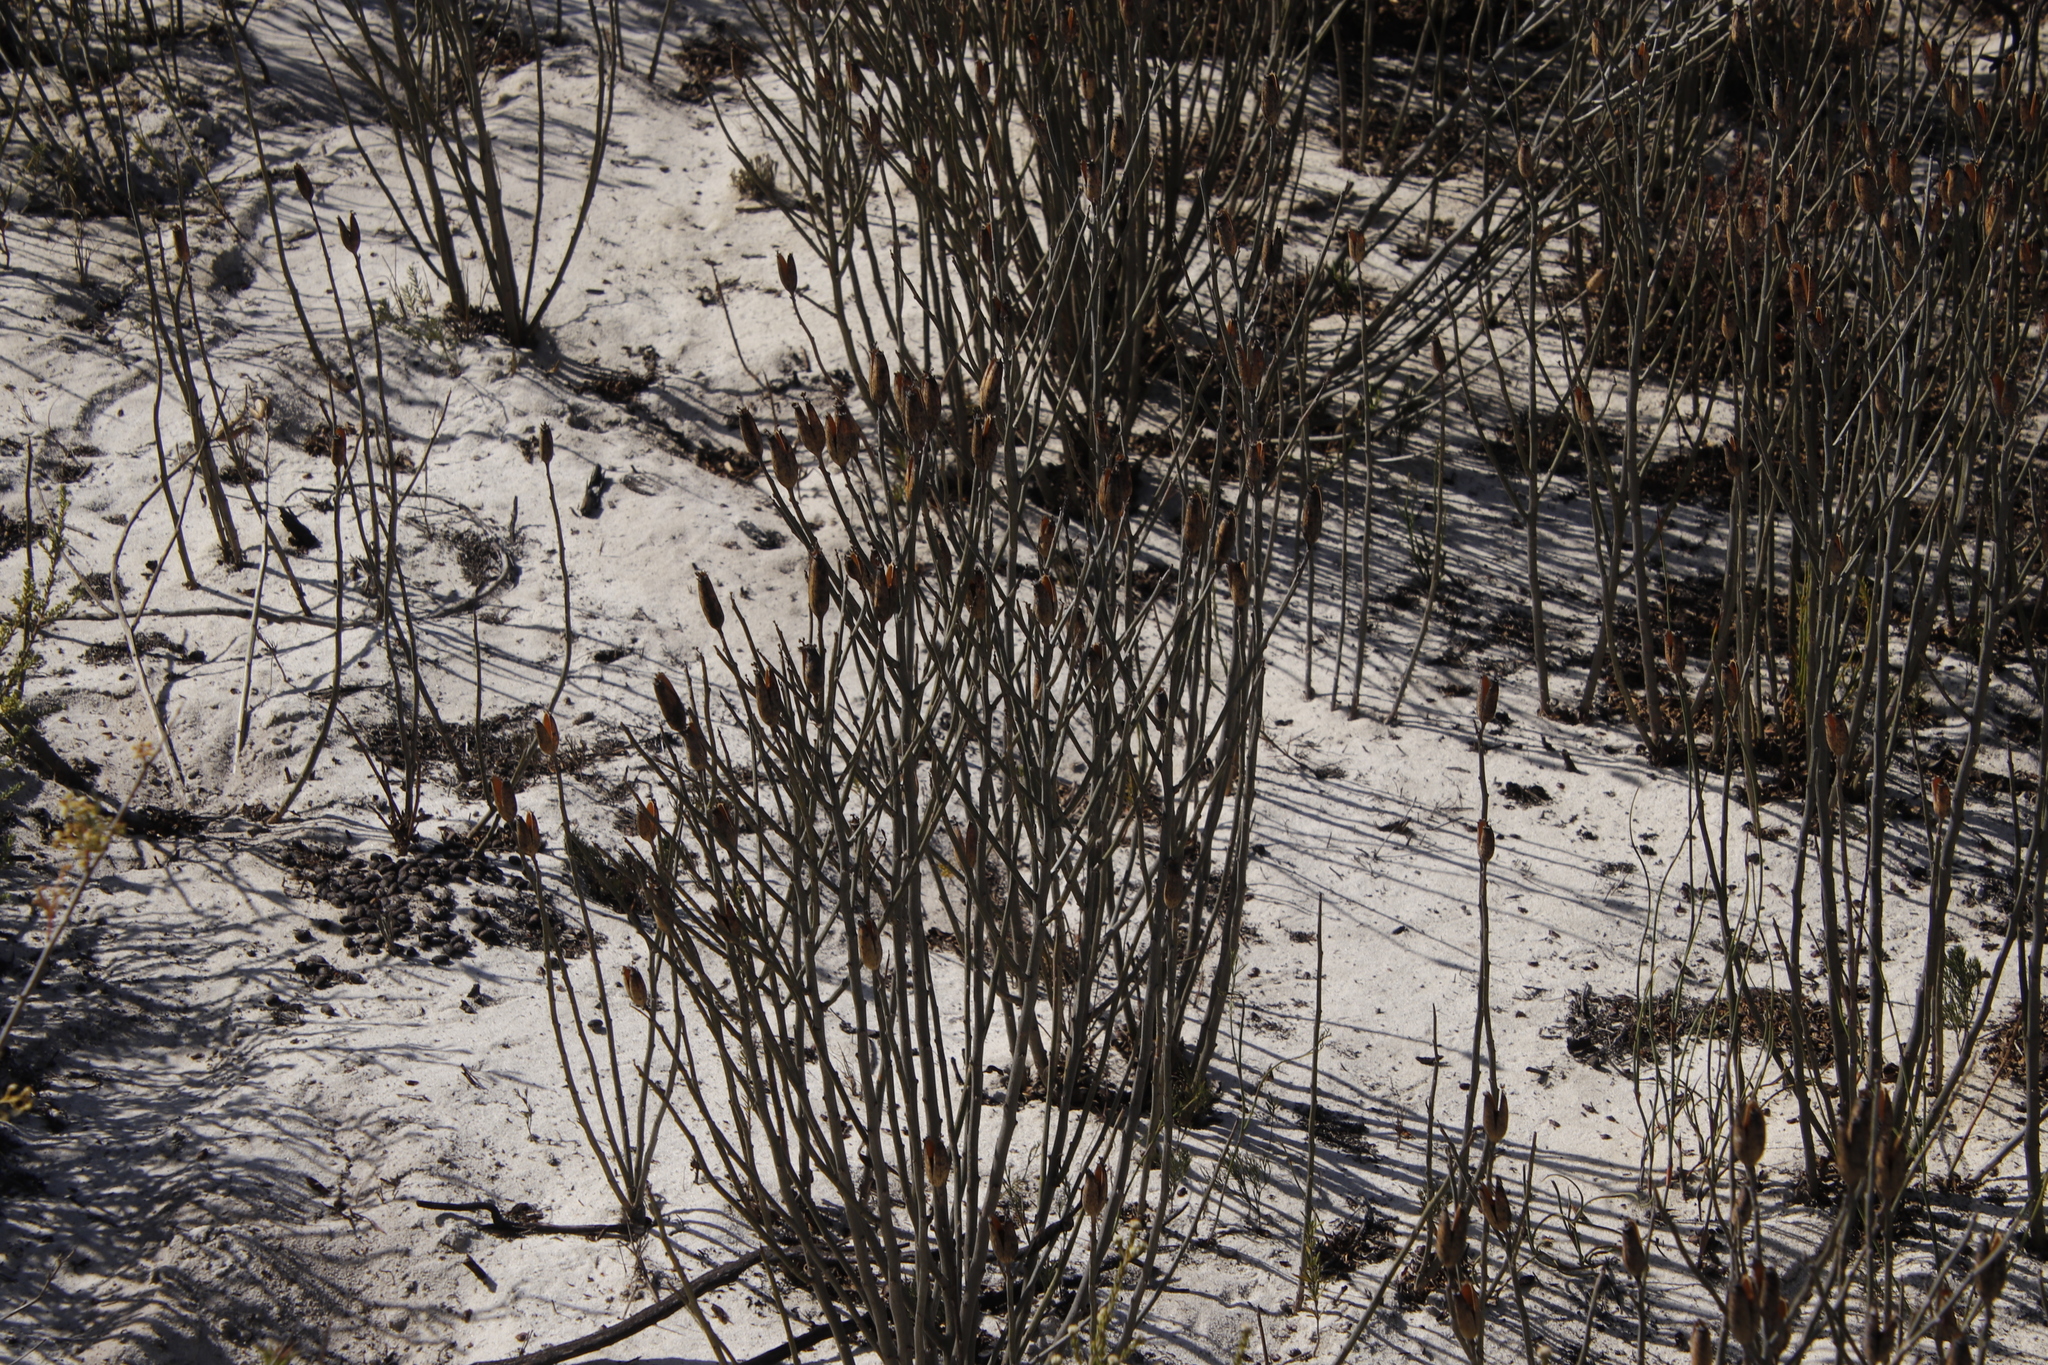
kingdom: Plantae
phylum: Tracheophyta
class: Magnoliopsida
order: Solanales
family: Montiniaceae
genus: Montinia
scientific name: Montinia caryophyllacea
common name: Wild clove-bush
